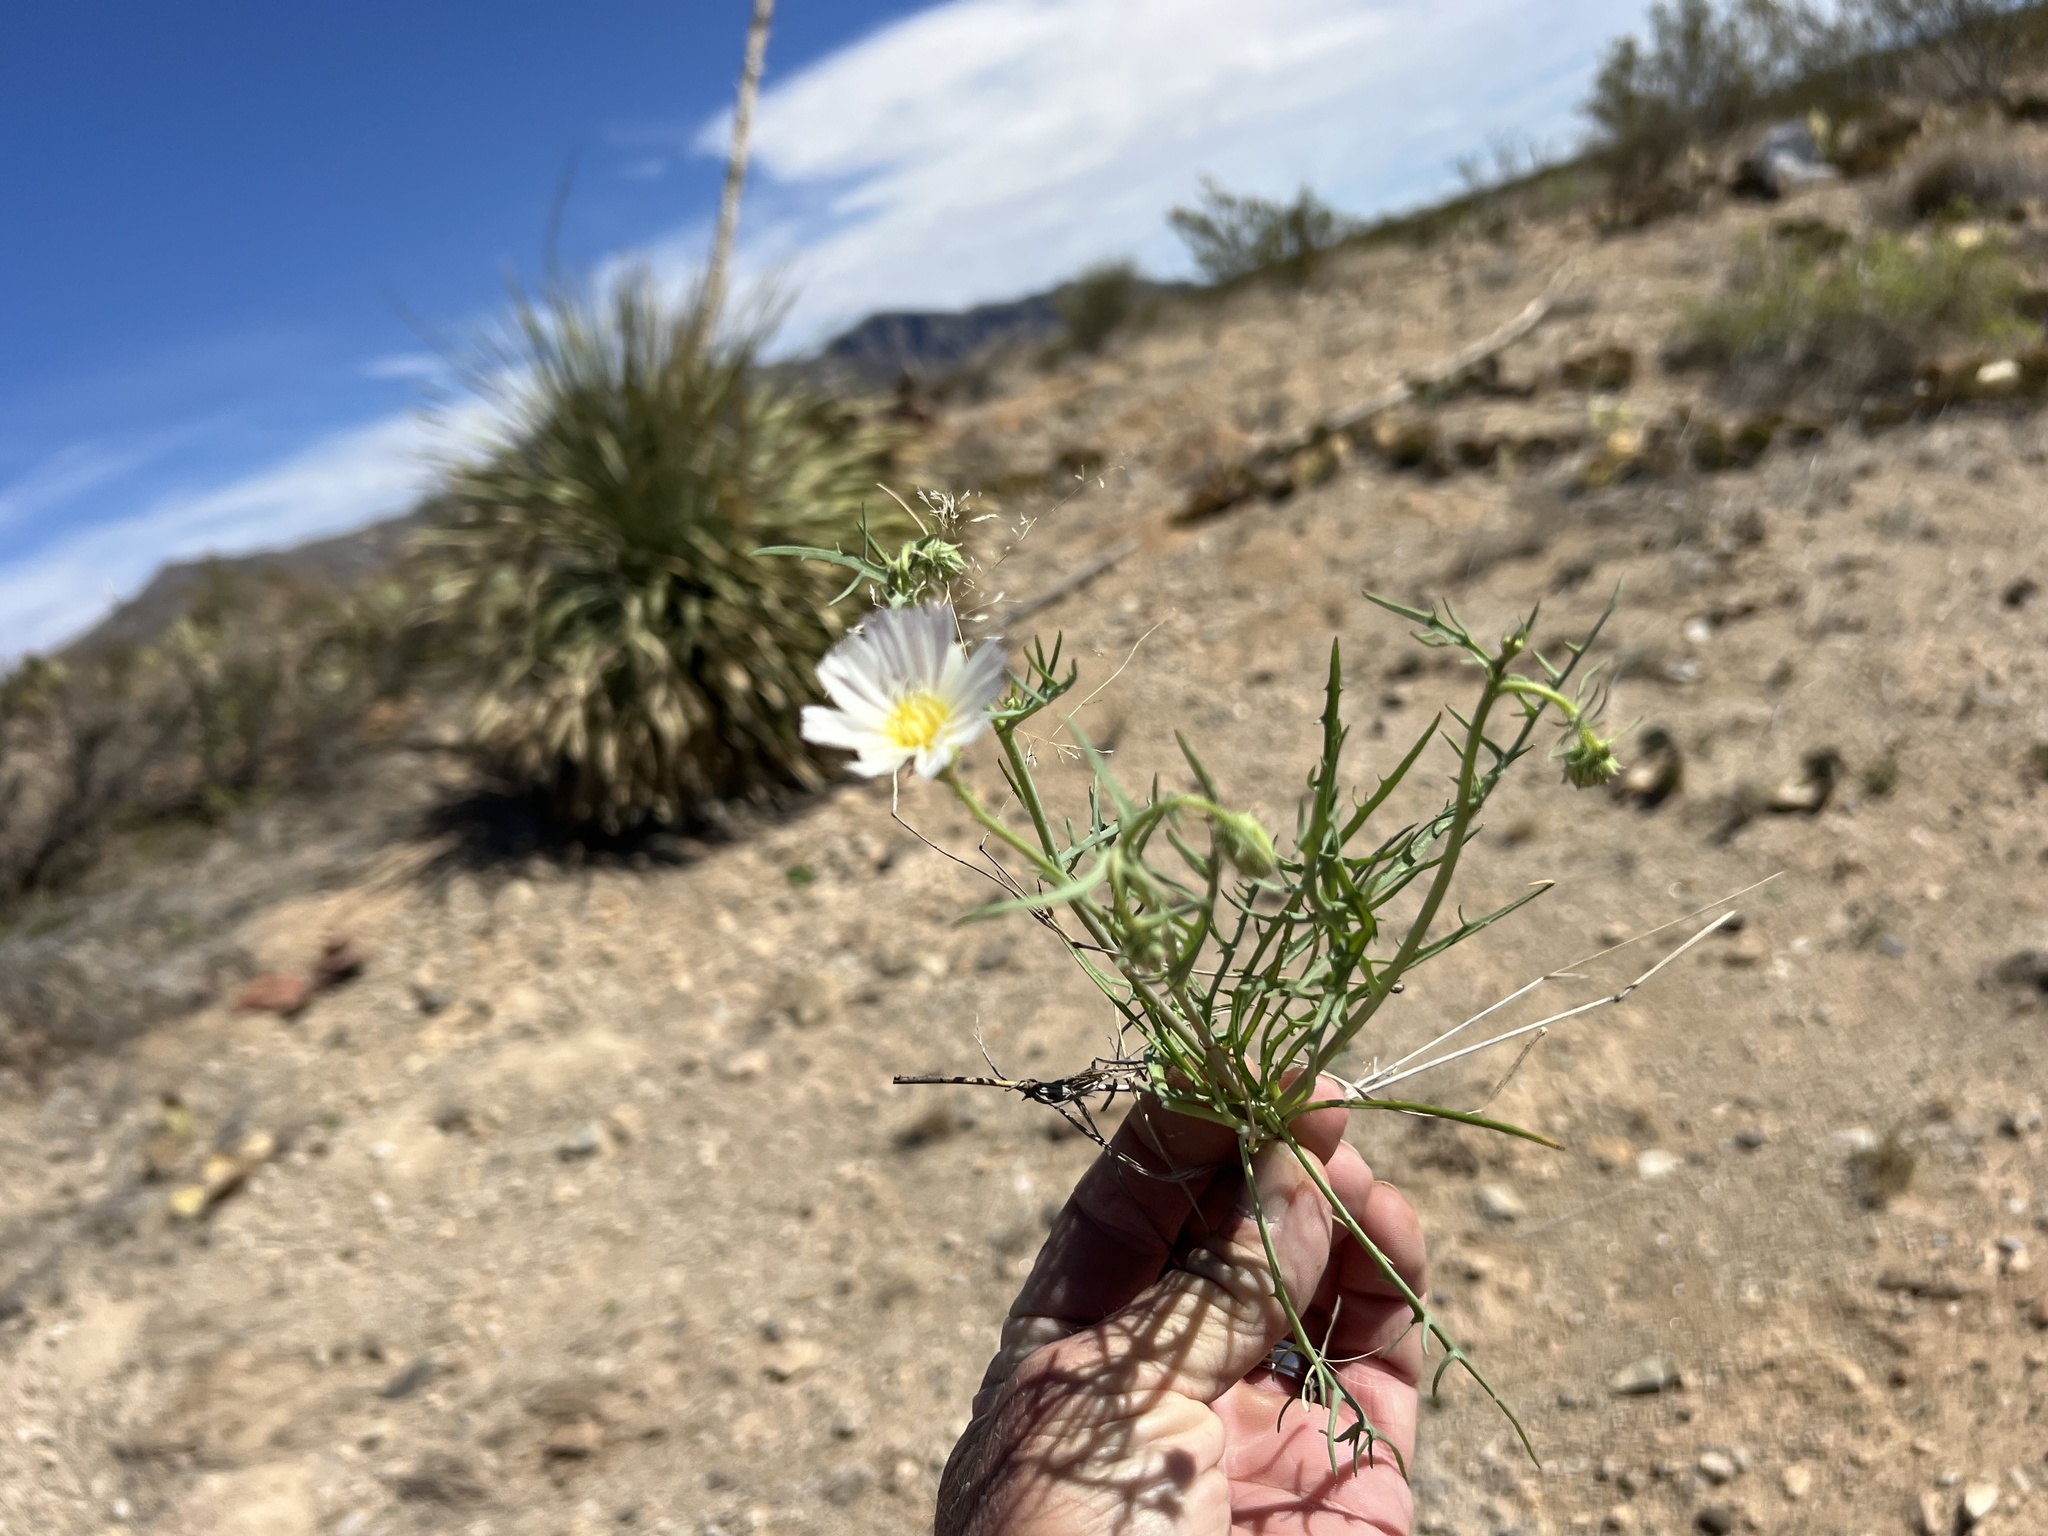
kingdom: Plantae
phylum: Tracheophyta
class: Magnoliopsida
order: Asterales
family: Asteraceae
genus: Calycoseris
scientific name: Calycoseris wrightii
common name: White tackstem
